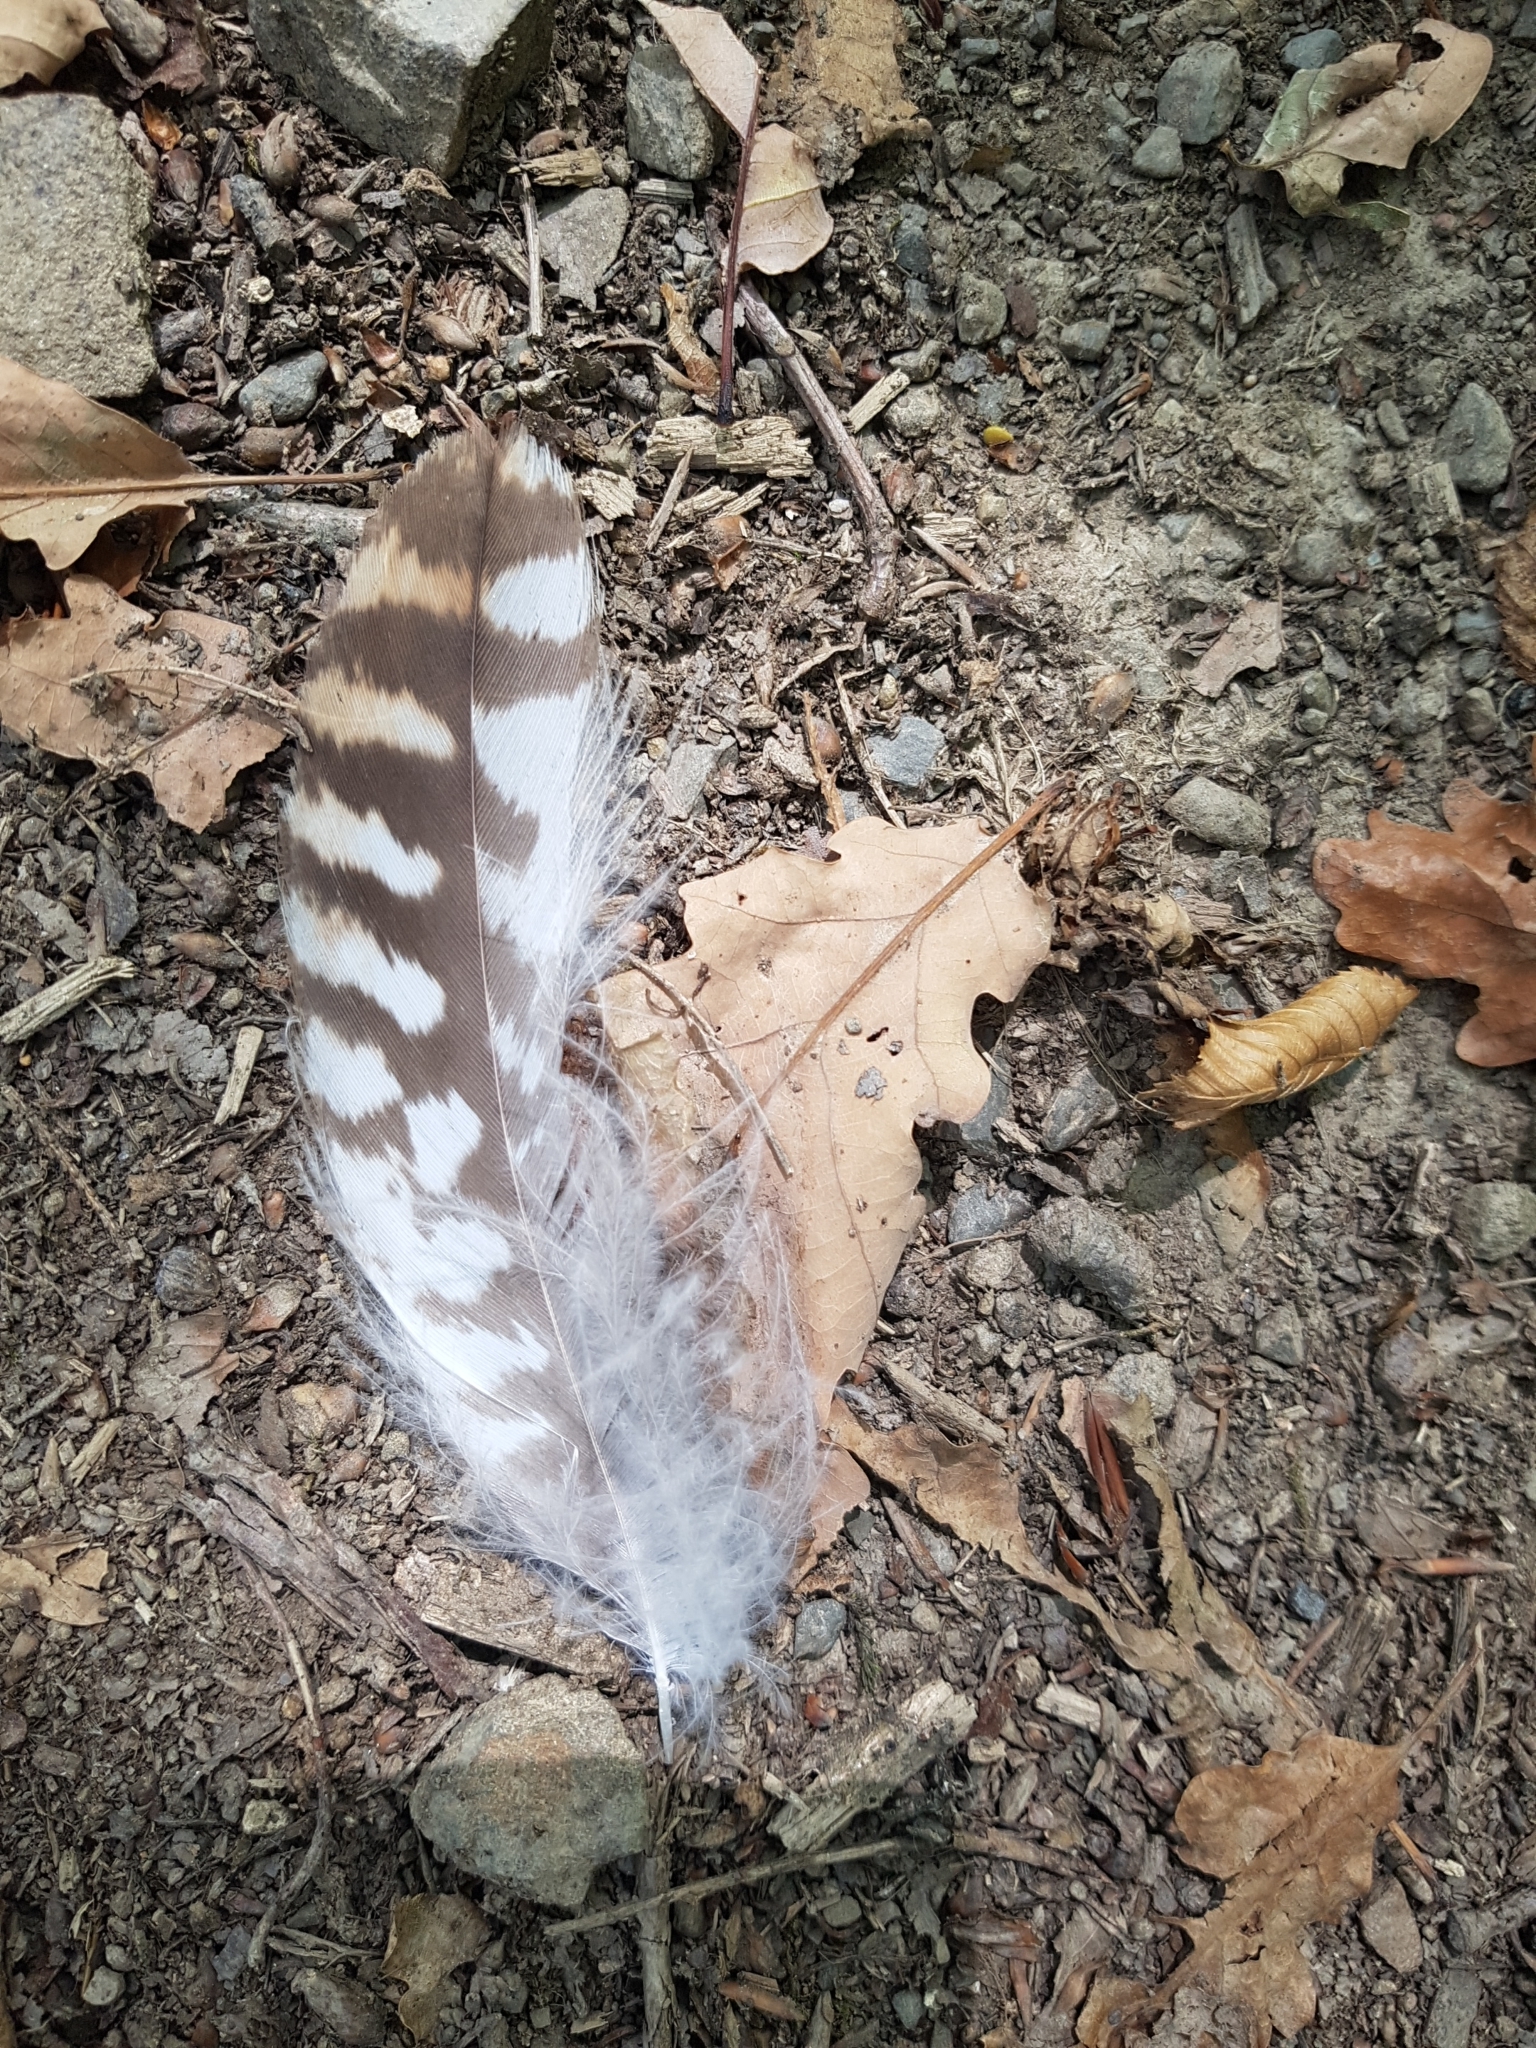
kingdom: Animalia
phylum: Chordata
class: Aves
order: Accipitriformes
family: Accipitridae
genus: Buteo
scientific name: Buteo buteo
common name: Common buzzard
